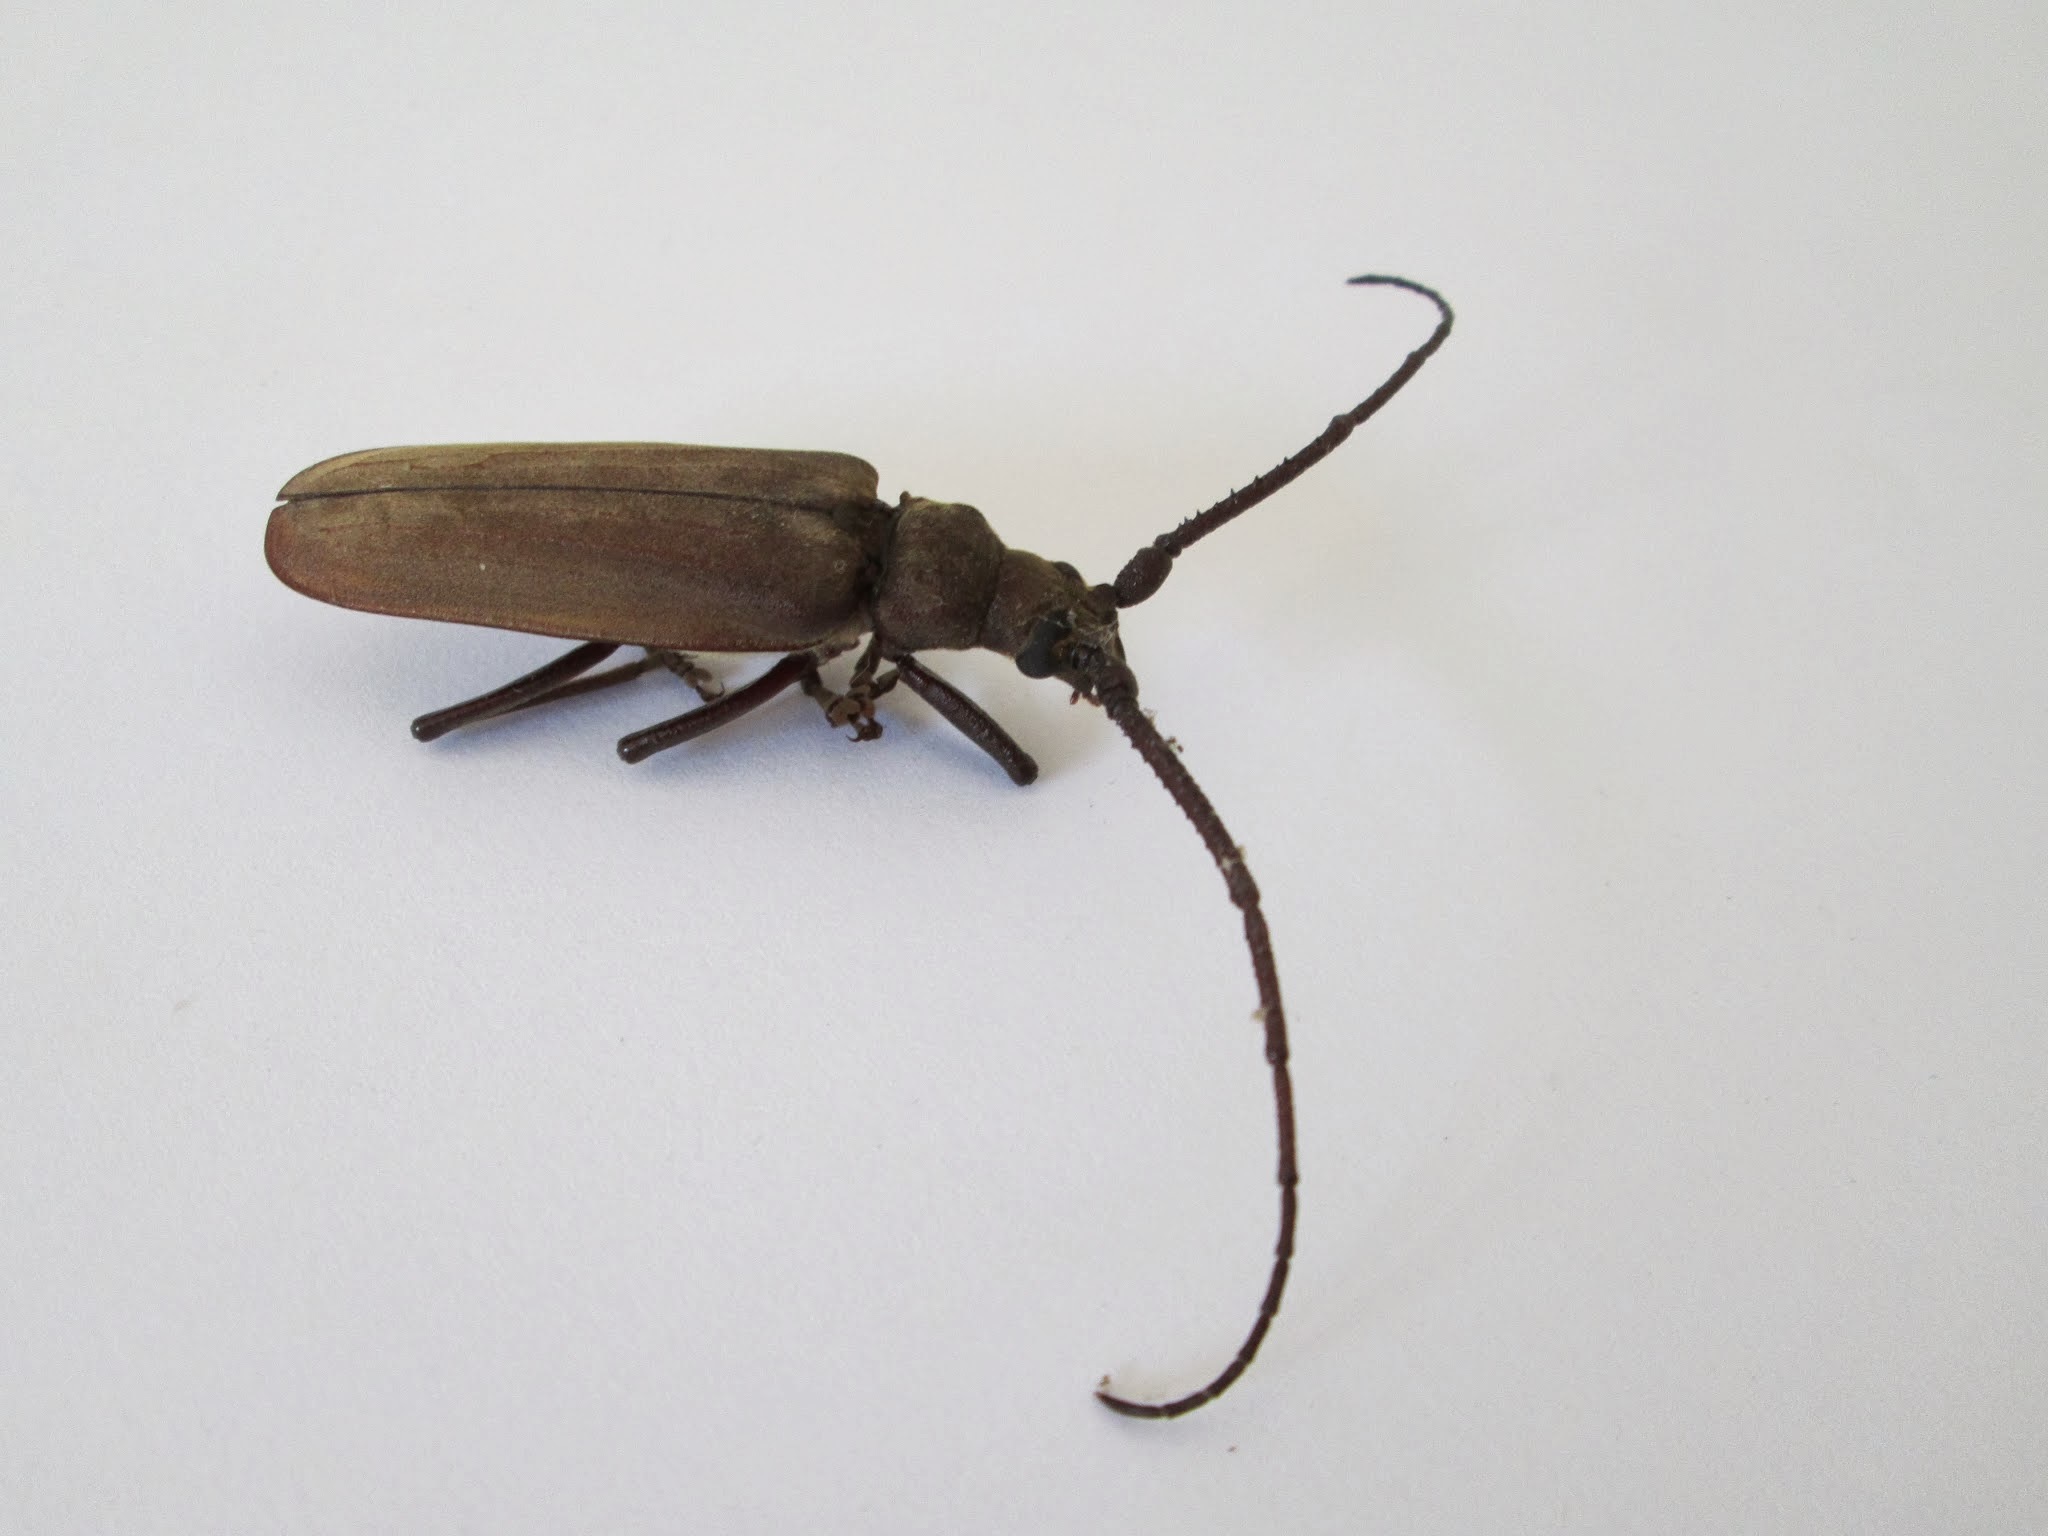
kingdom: Animalia
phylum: Arthropoda
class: Insecta
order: Coleoptera
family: Cerambycidae
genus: Aegosoma
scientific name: Aegosoma scabricorne
